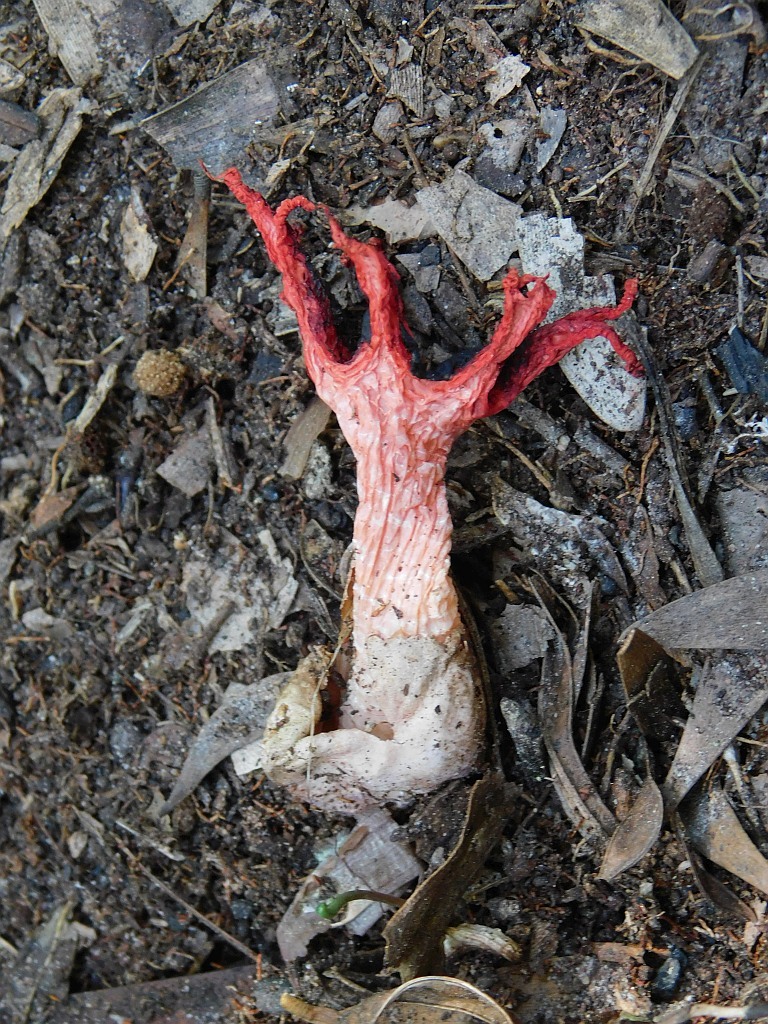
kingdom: Fungi
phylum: Basidiomycota
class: Agaricomycetes
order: Phallales
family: Phallaceae
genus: Clathrus
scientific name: Clathrus archeri
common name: Devil's fingers
